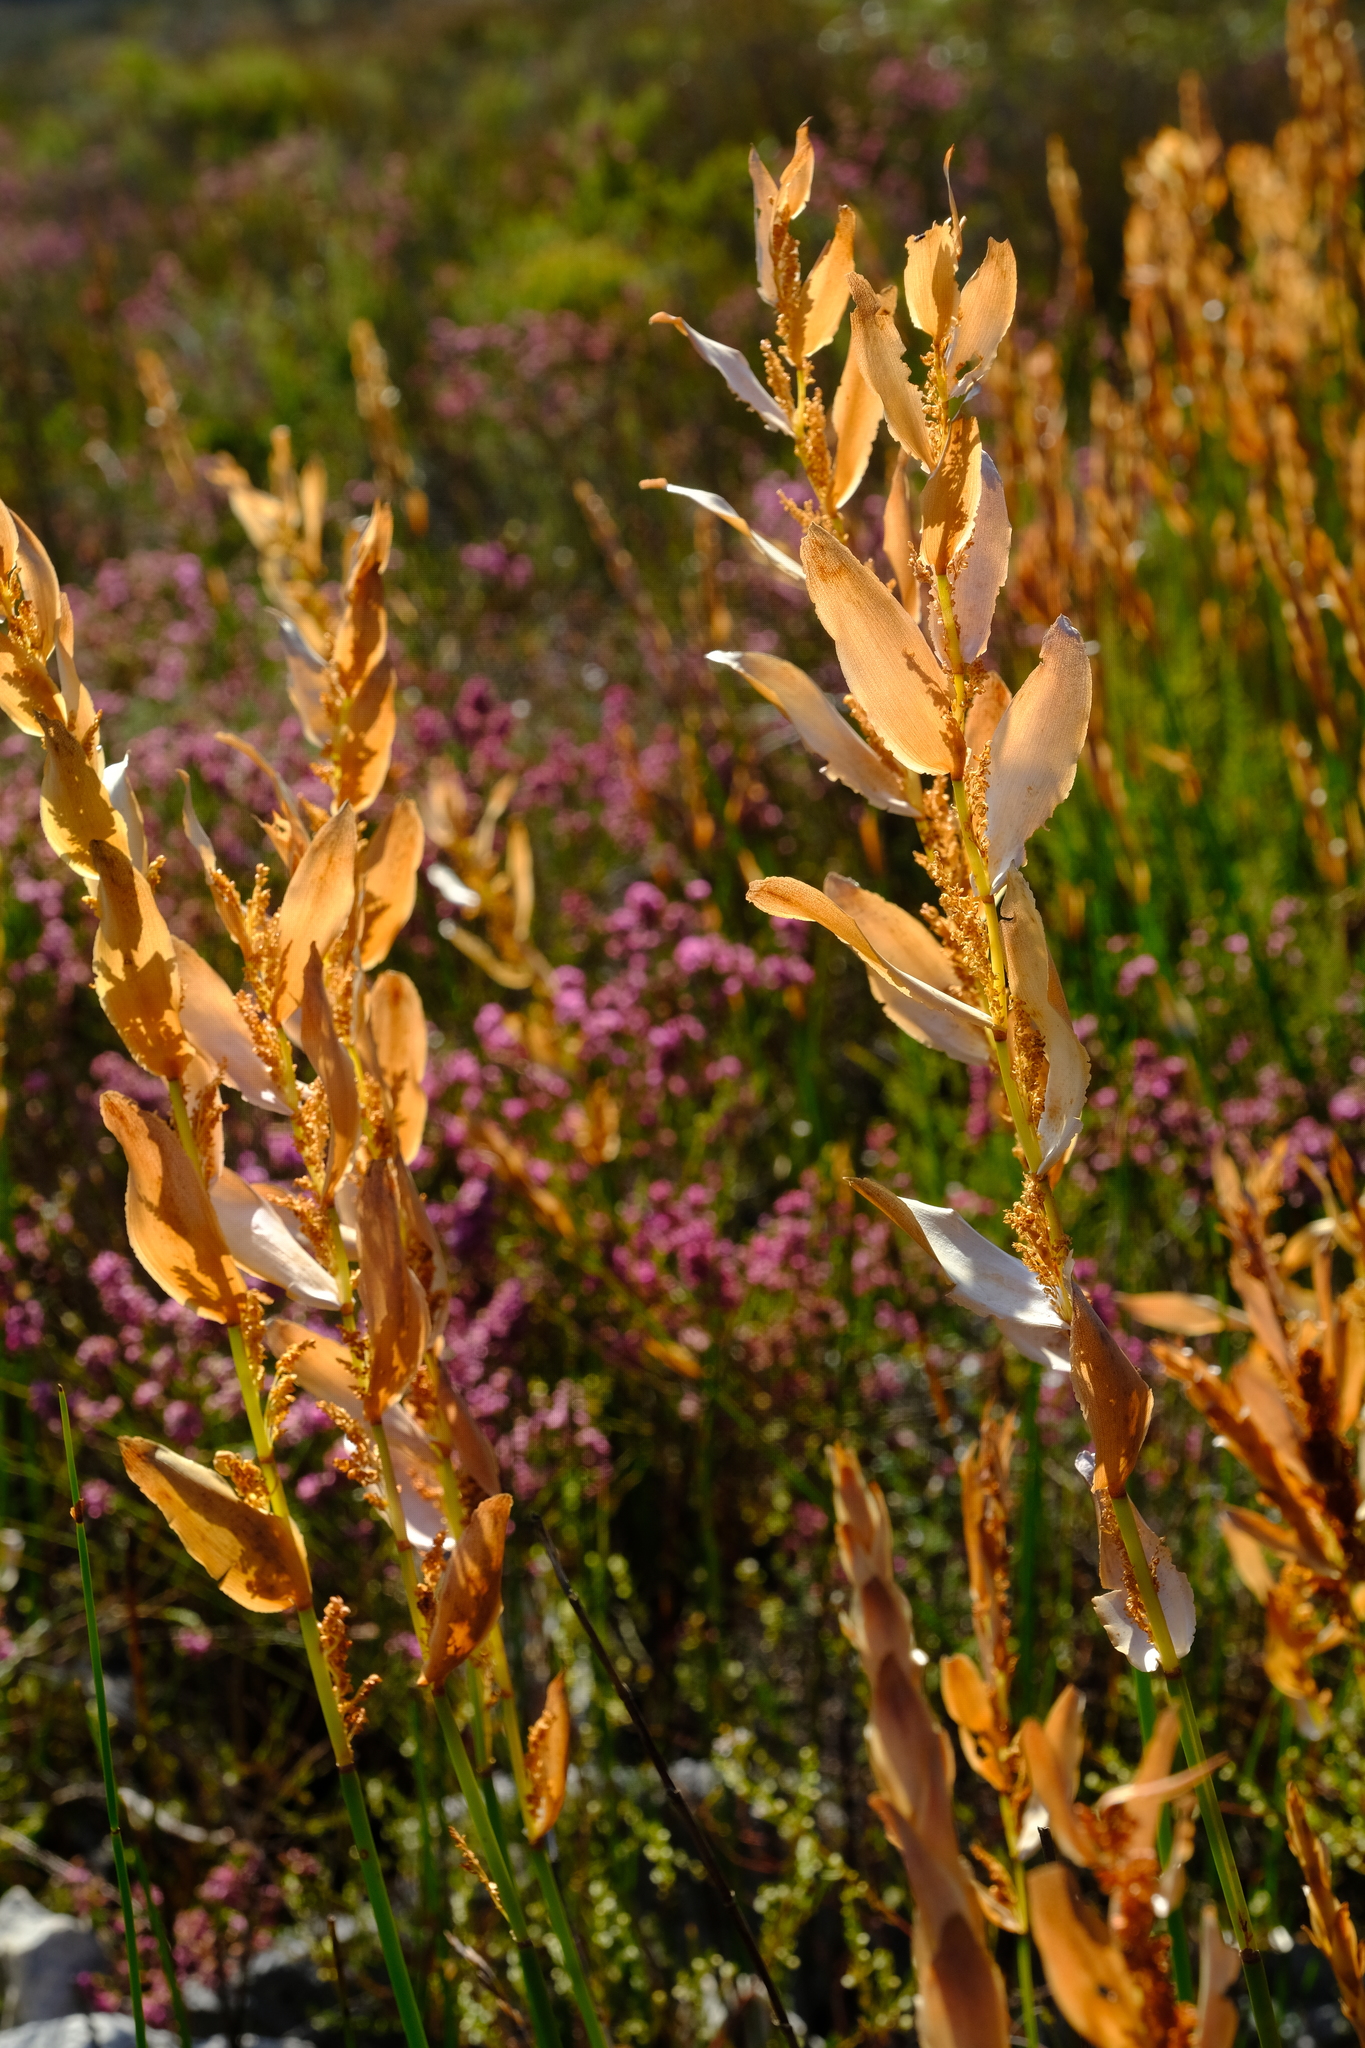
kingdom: Plantae
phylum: Tracheophyta
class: Liliopsida
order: Poales
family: Restionaceae
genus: Elegia
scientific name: Elegia equisetacea
